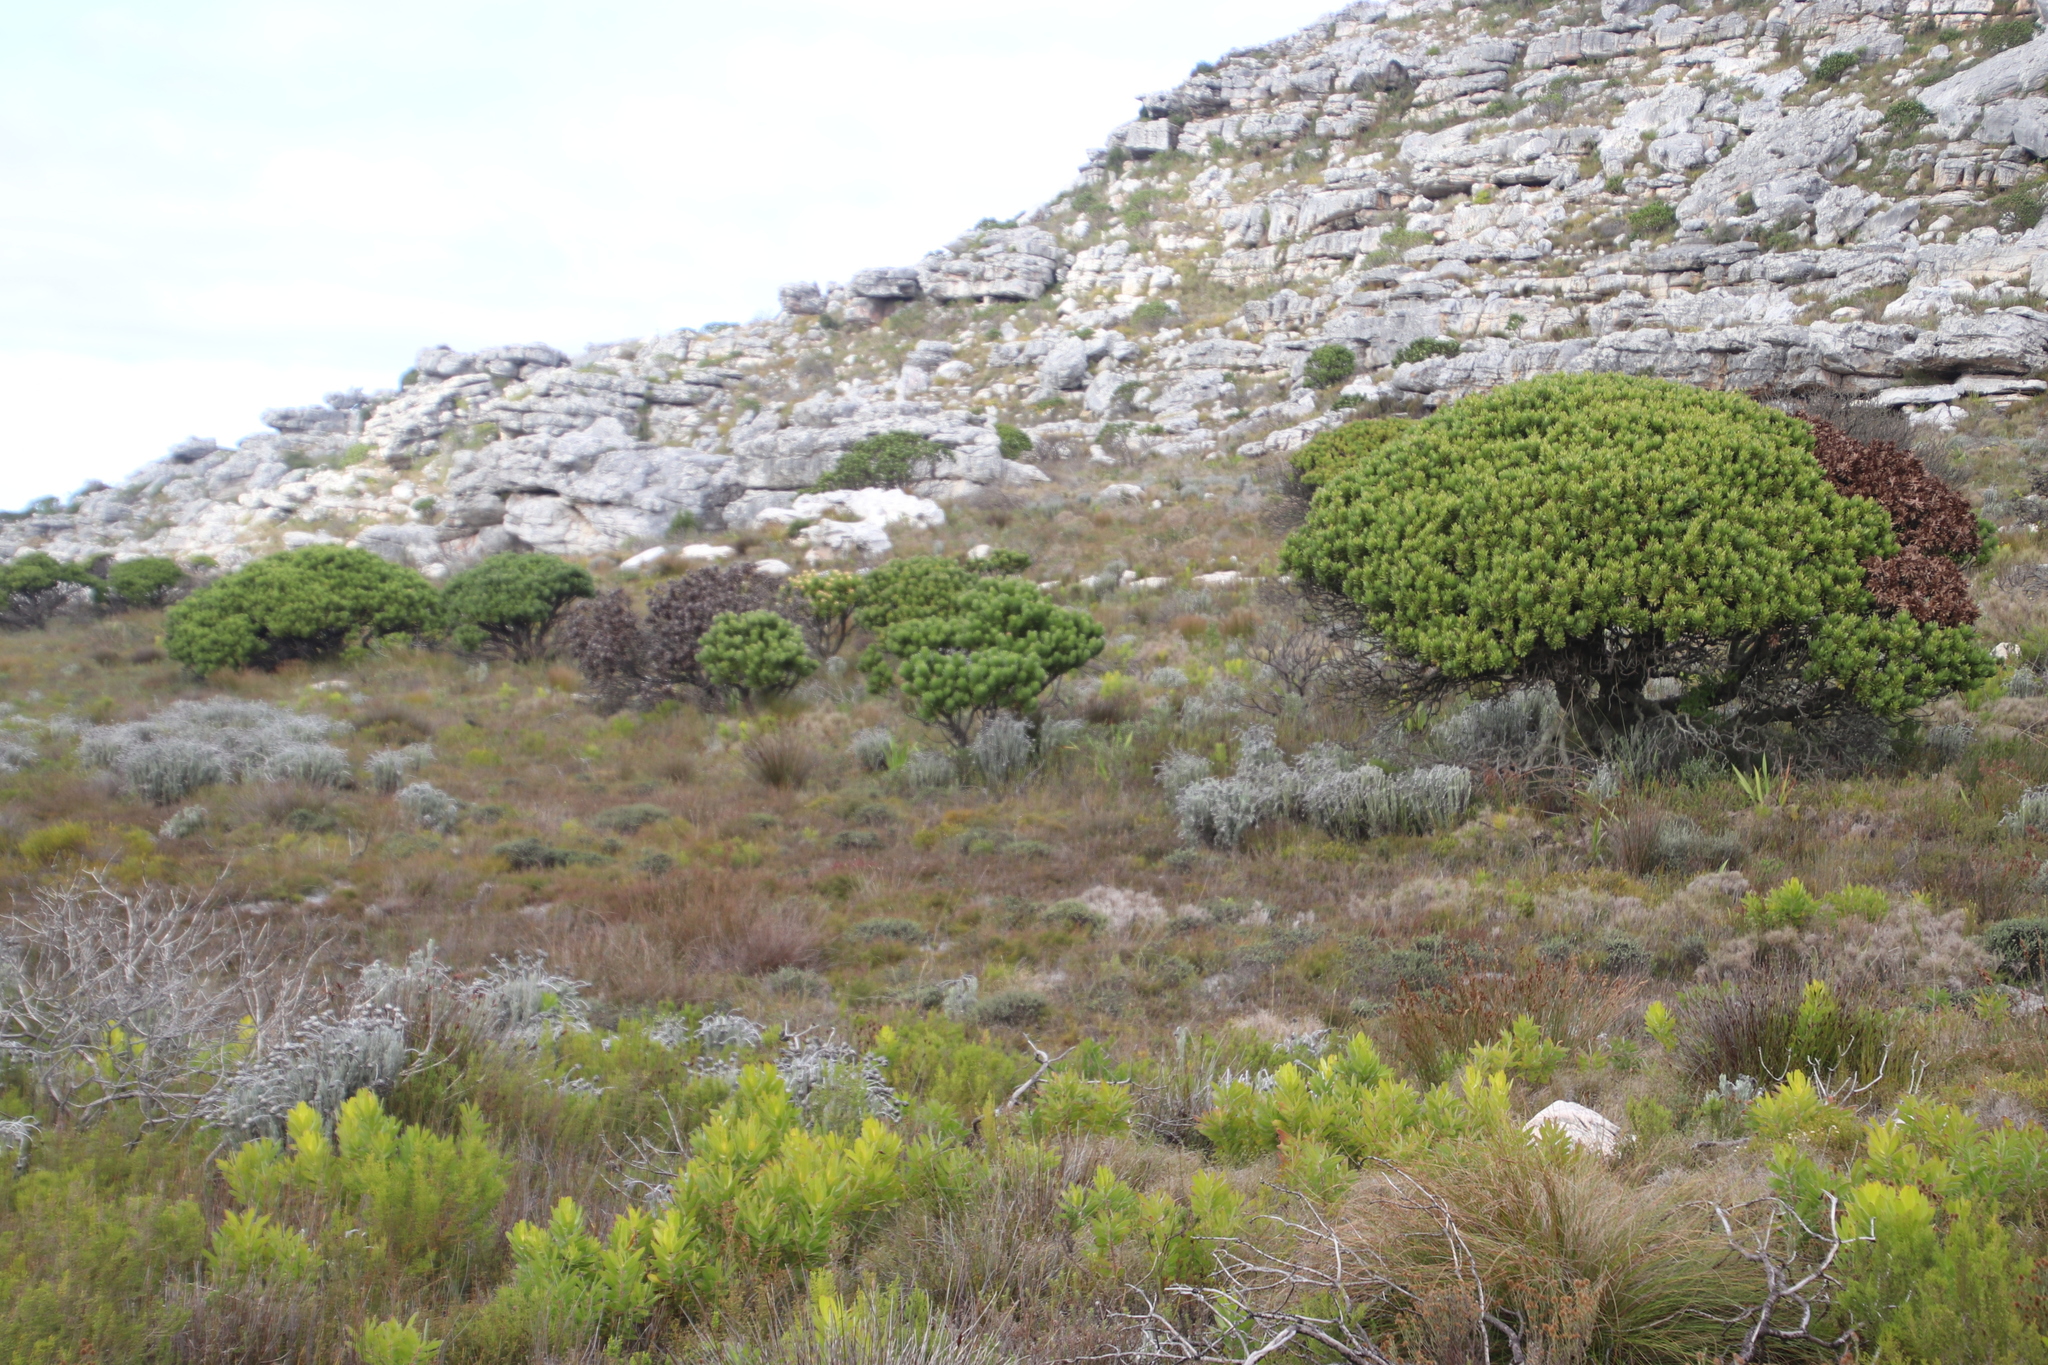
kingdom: Plantae
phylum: Tracheophyta
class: Magnoliopsida
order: Proteales
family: Proteaceae
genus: Mimetes
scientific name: Mimetes fimbriifolius
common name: Fringed bottlebrush
